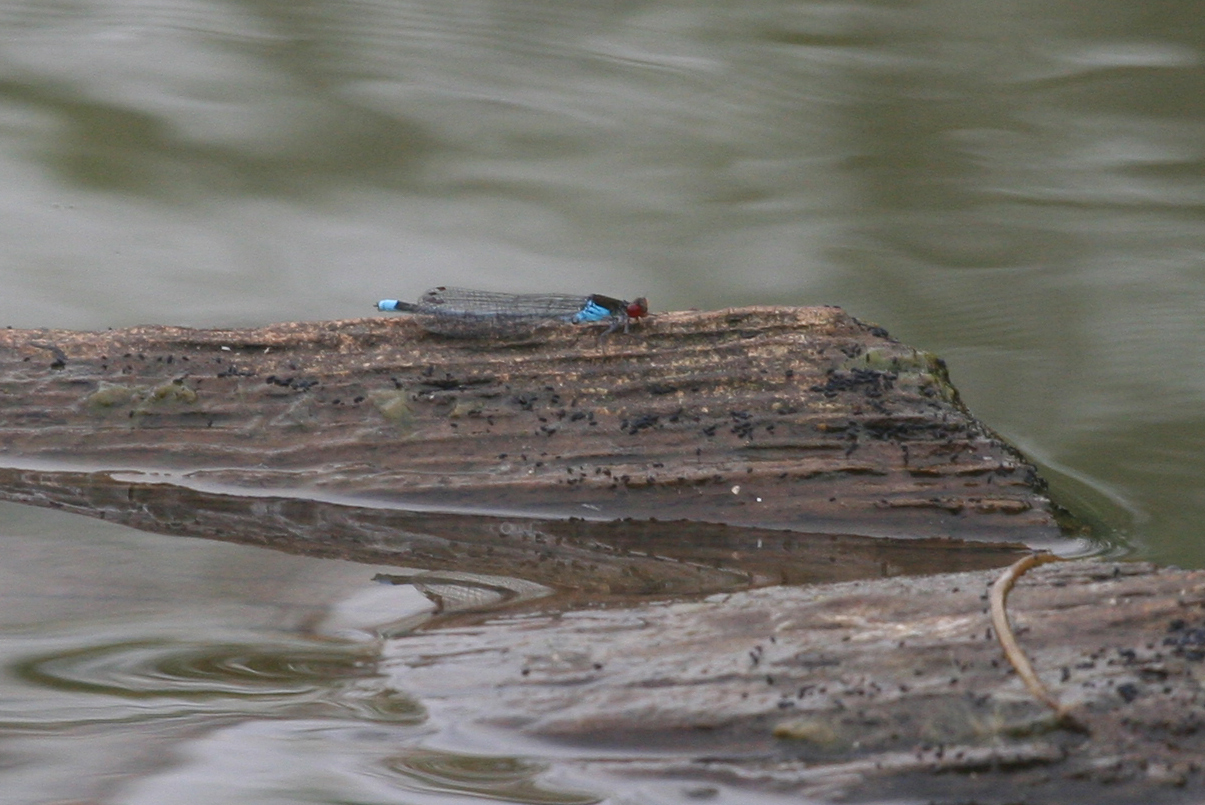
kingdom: Animalia
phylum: Arthropoda
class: Insecta
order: Odonata
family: Coenagrionidae
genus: Erythromma
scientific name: Erythromma najas
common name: Red-eyed damselfly
